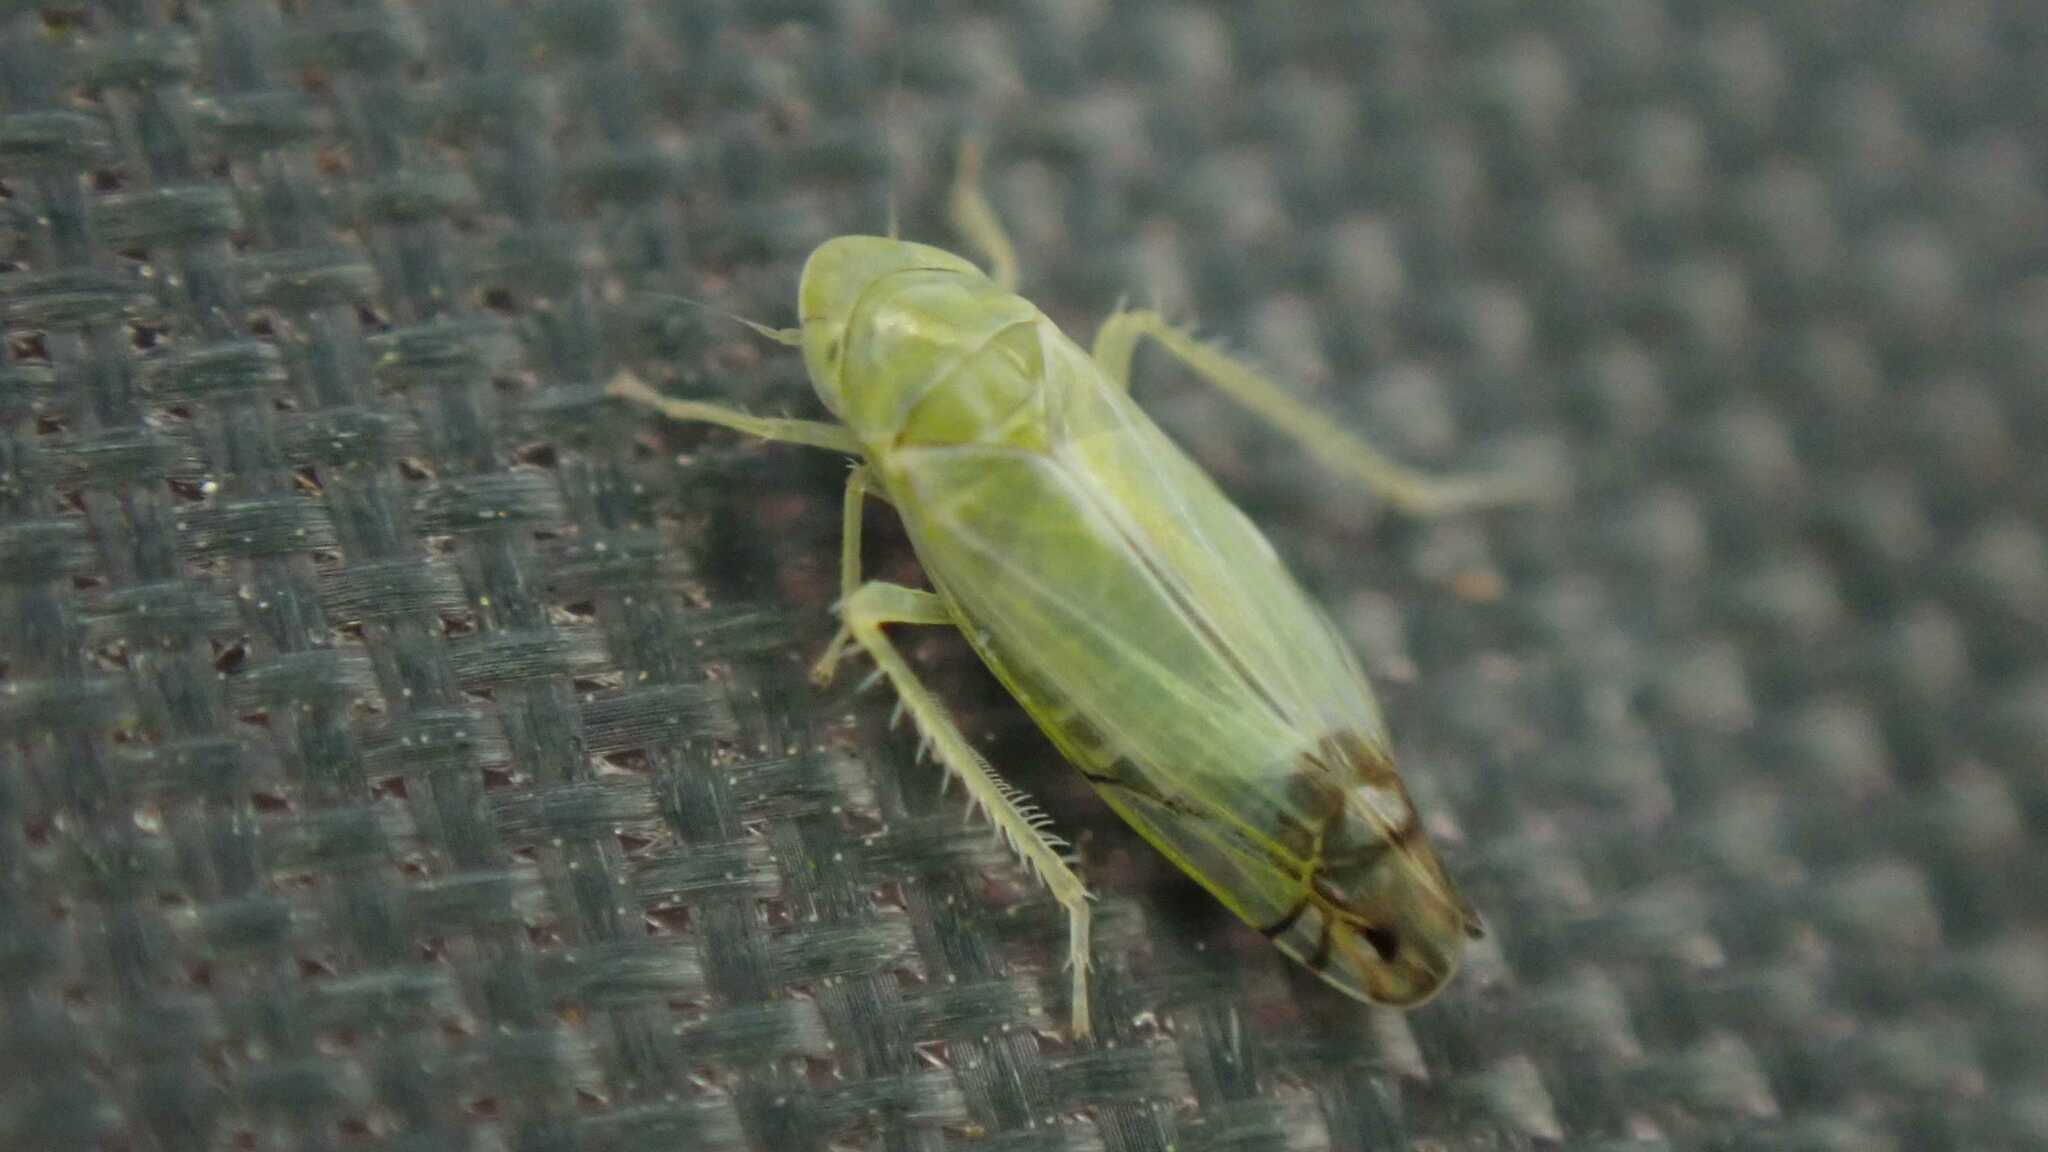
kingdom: Animalia
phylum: Arthropoda
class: Insecta
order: Hemiptera
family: Cicadellidae
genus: Zyginella
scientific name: Zyginella pulchra
